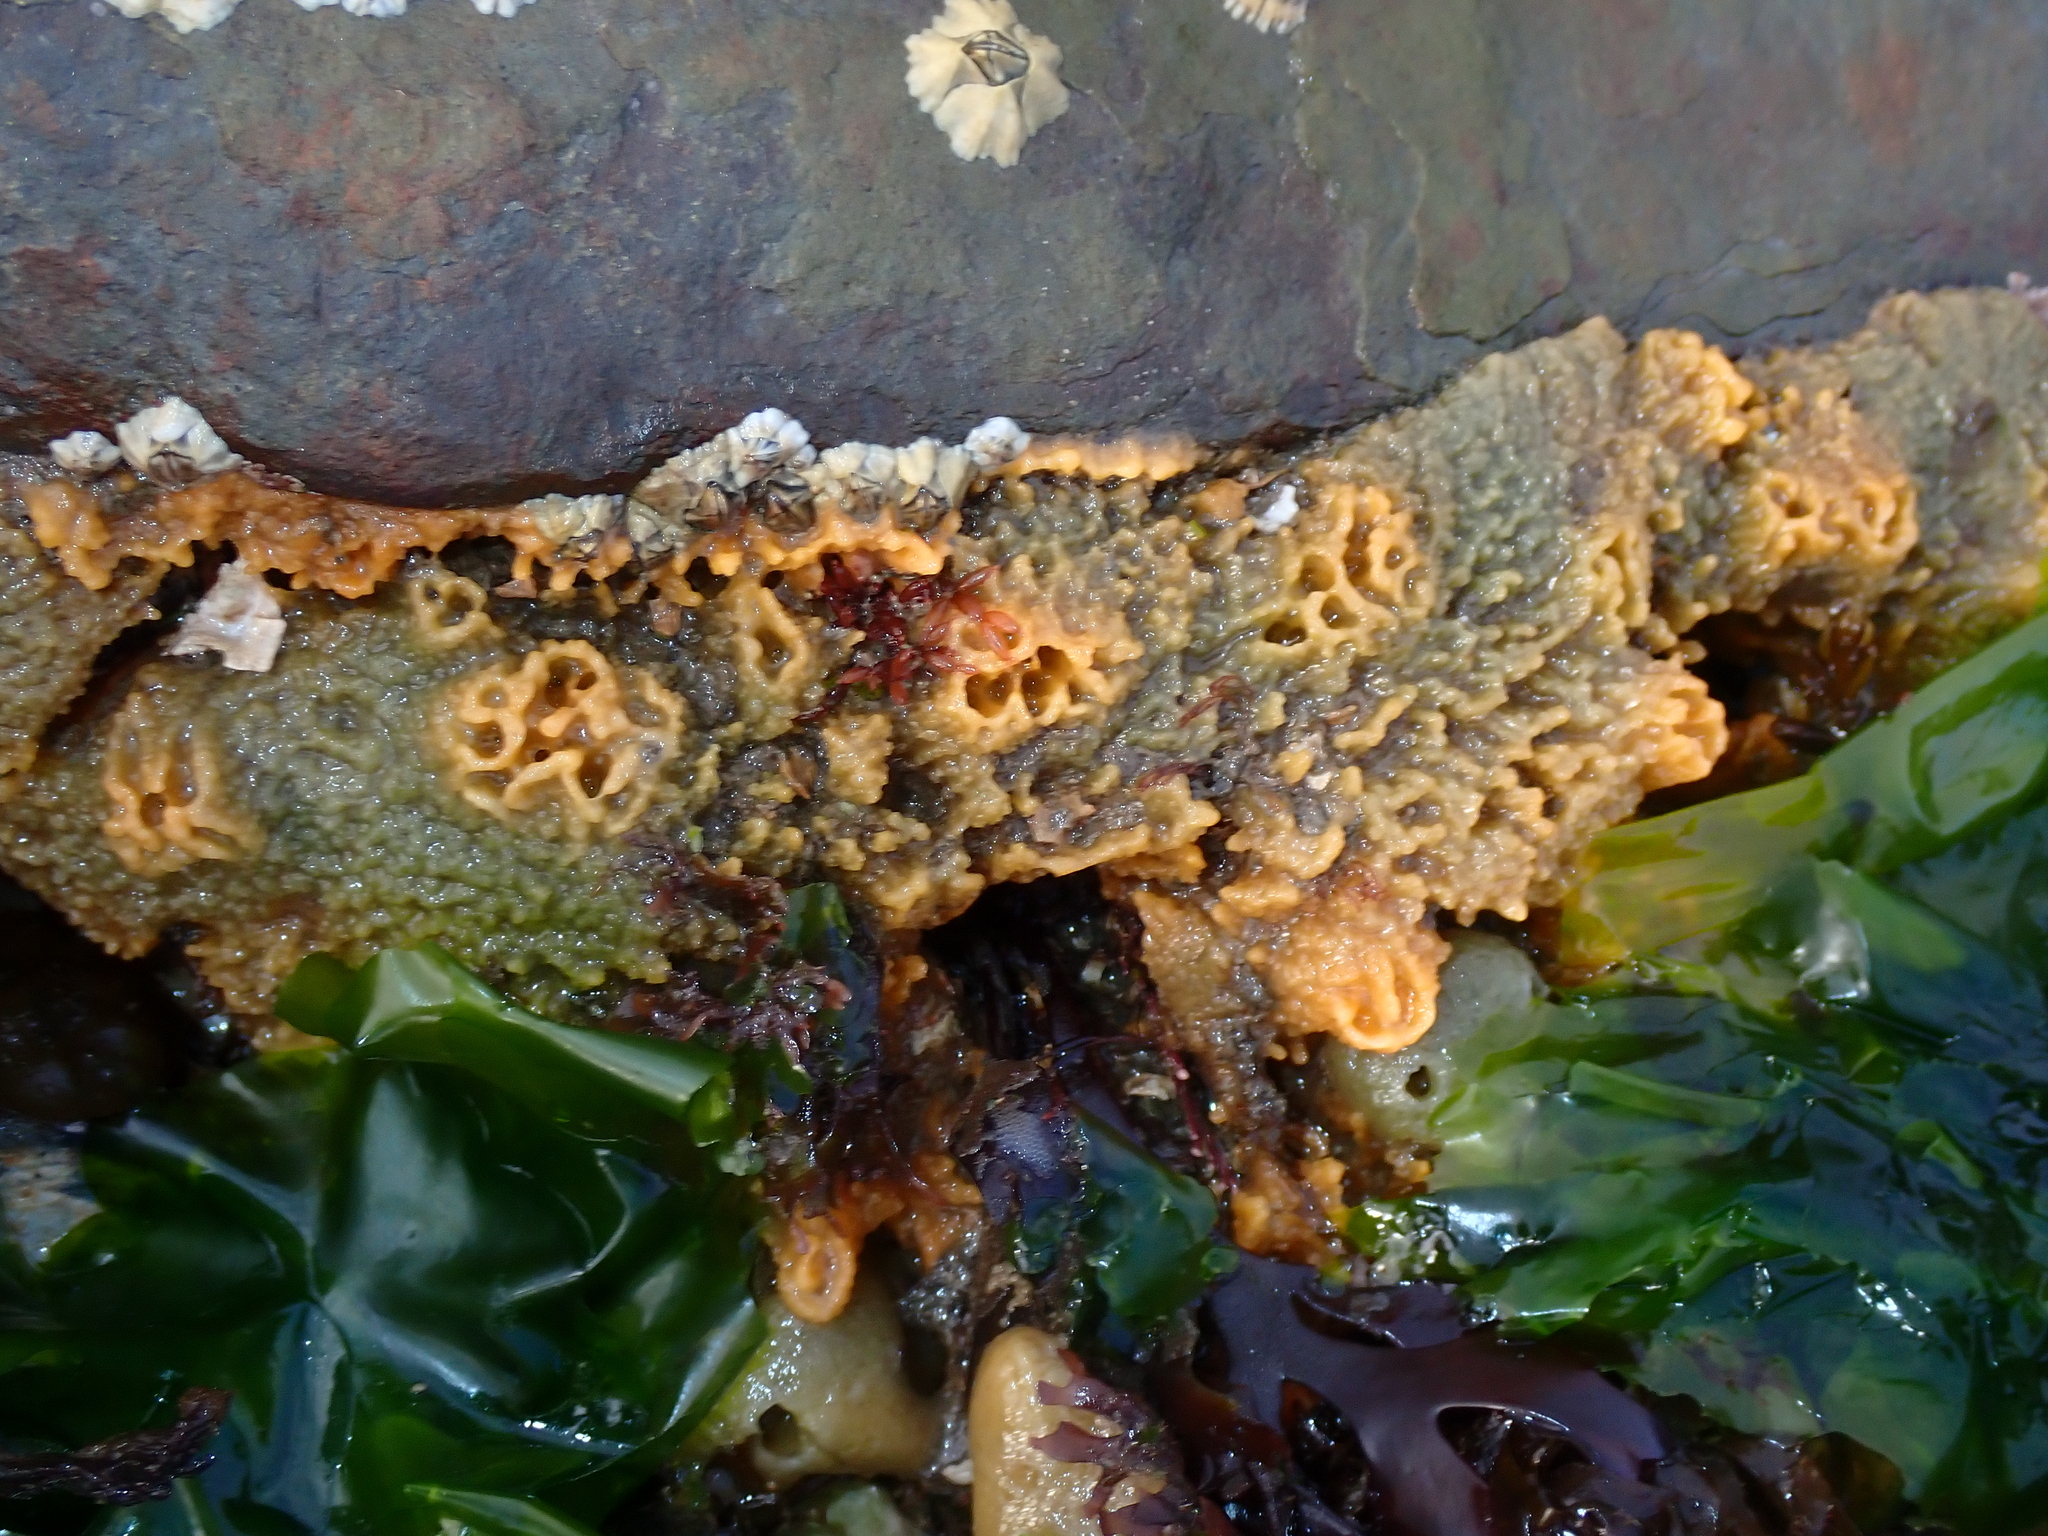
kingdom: Animalia
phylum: Porifera
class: Demospongiae
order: Suberitida
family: Halichondriidae
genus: Hymeniacidon
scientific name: Hymeniacidon perlevis
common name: Crumb-of-bread sponge
